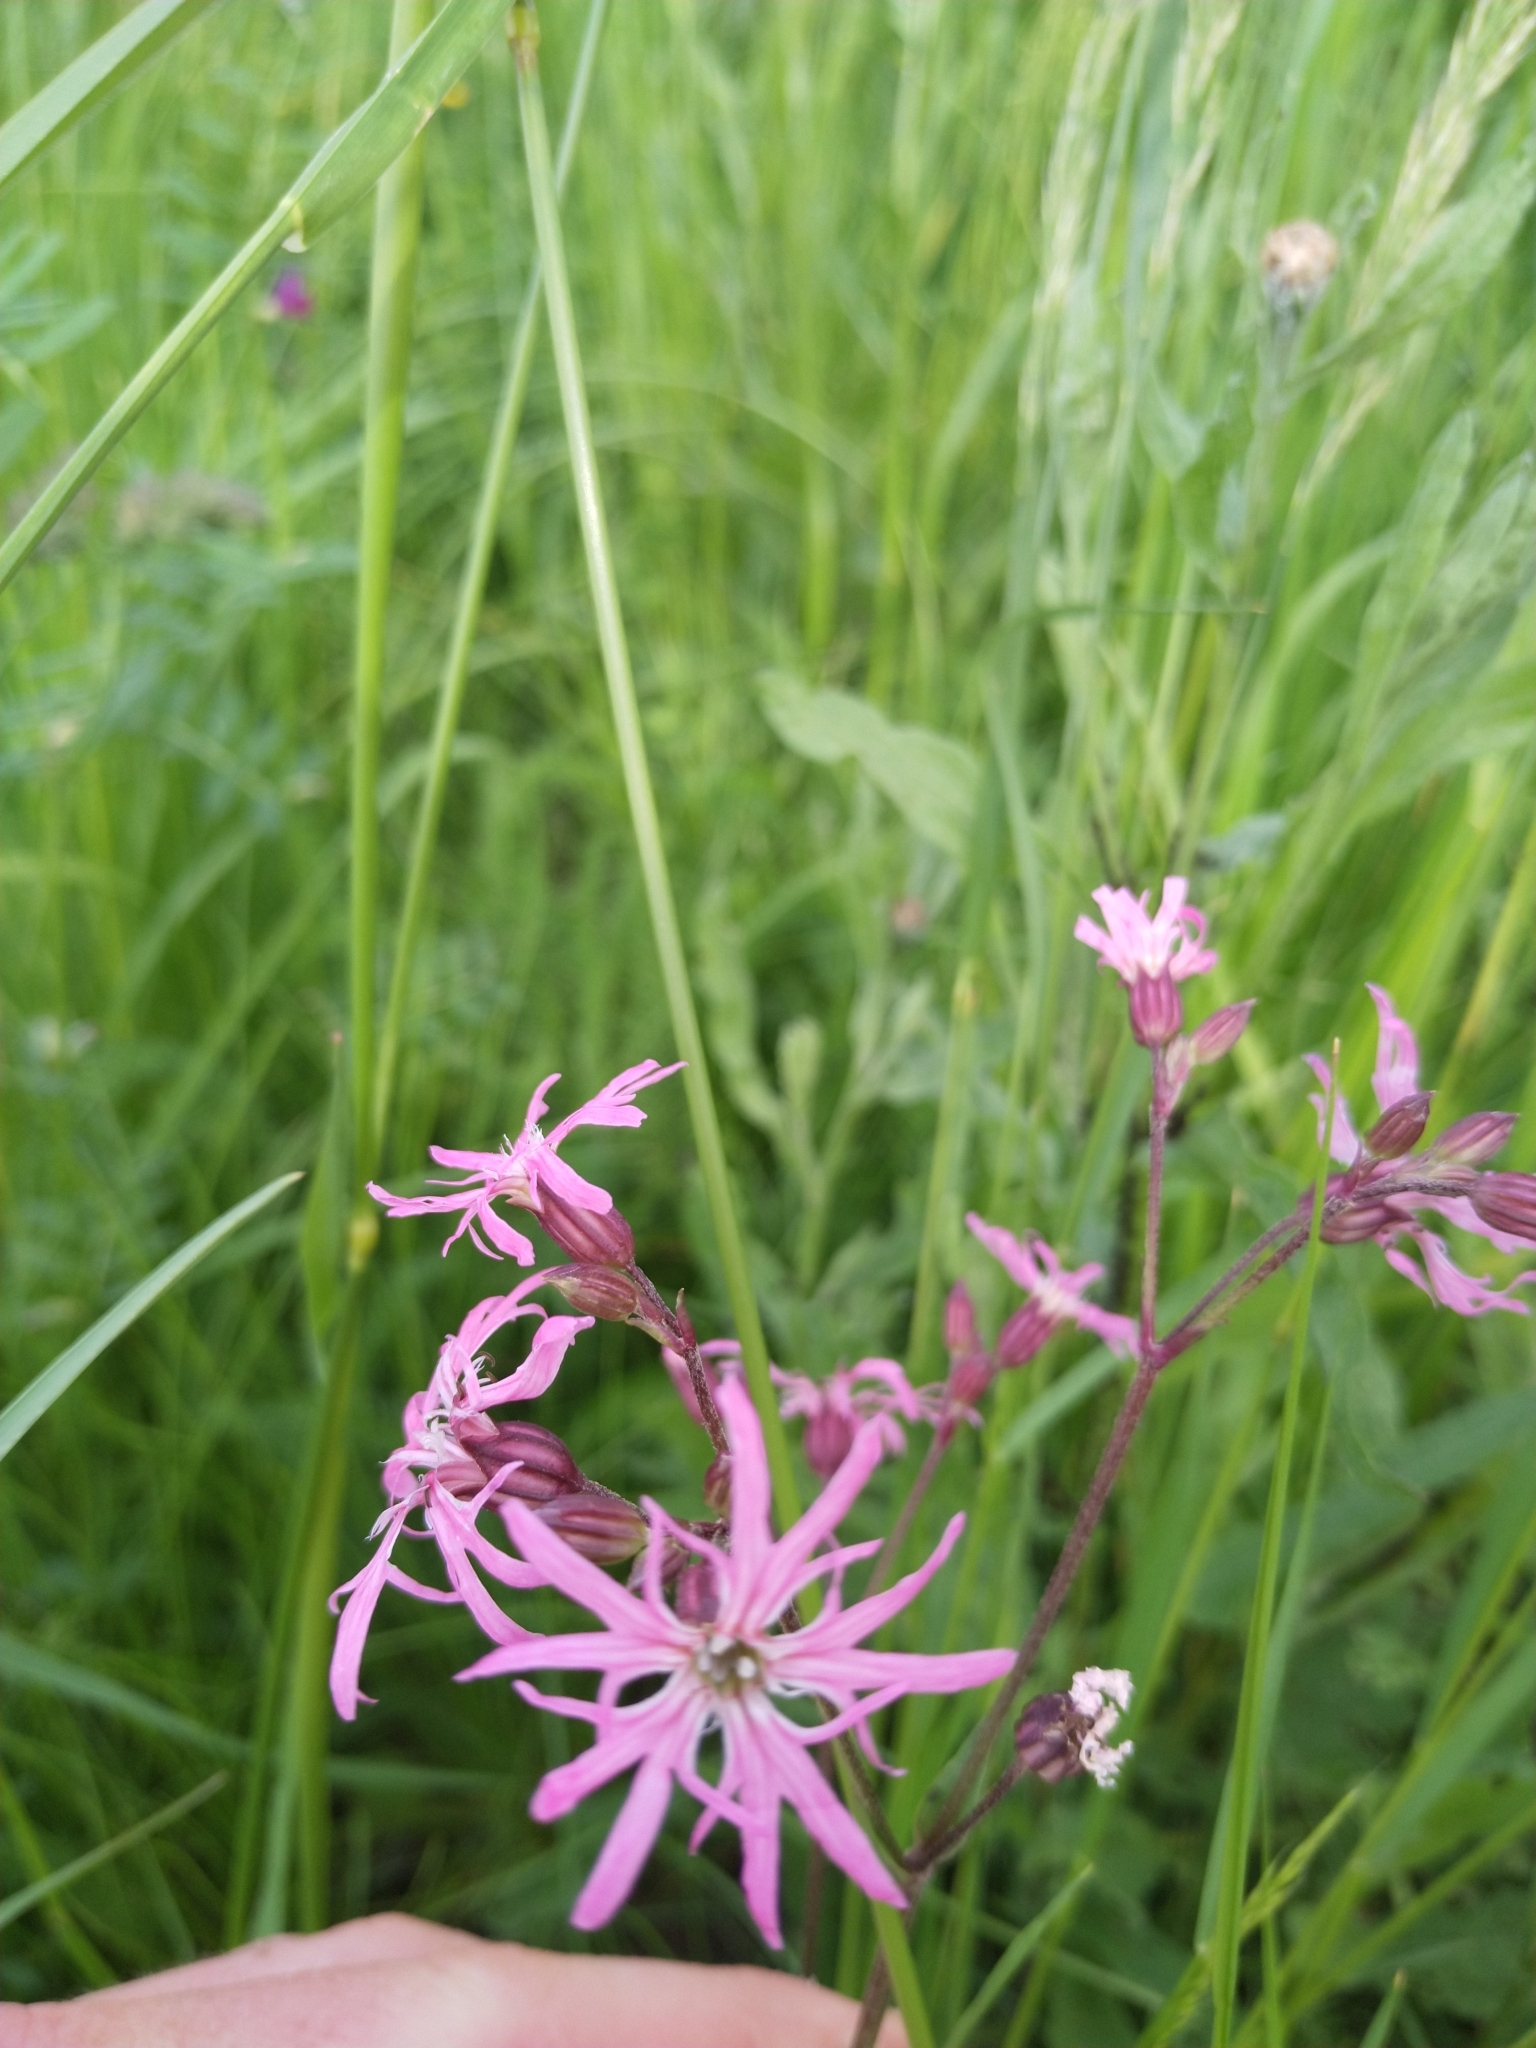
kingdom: Plantae
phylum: Tracheophyta
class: Magnoliopsida
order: Caryophyllales
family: Caryophyllaceae
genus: Silene
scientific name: Silene flos-cuculi
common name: Ragged-robin
